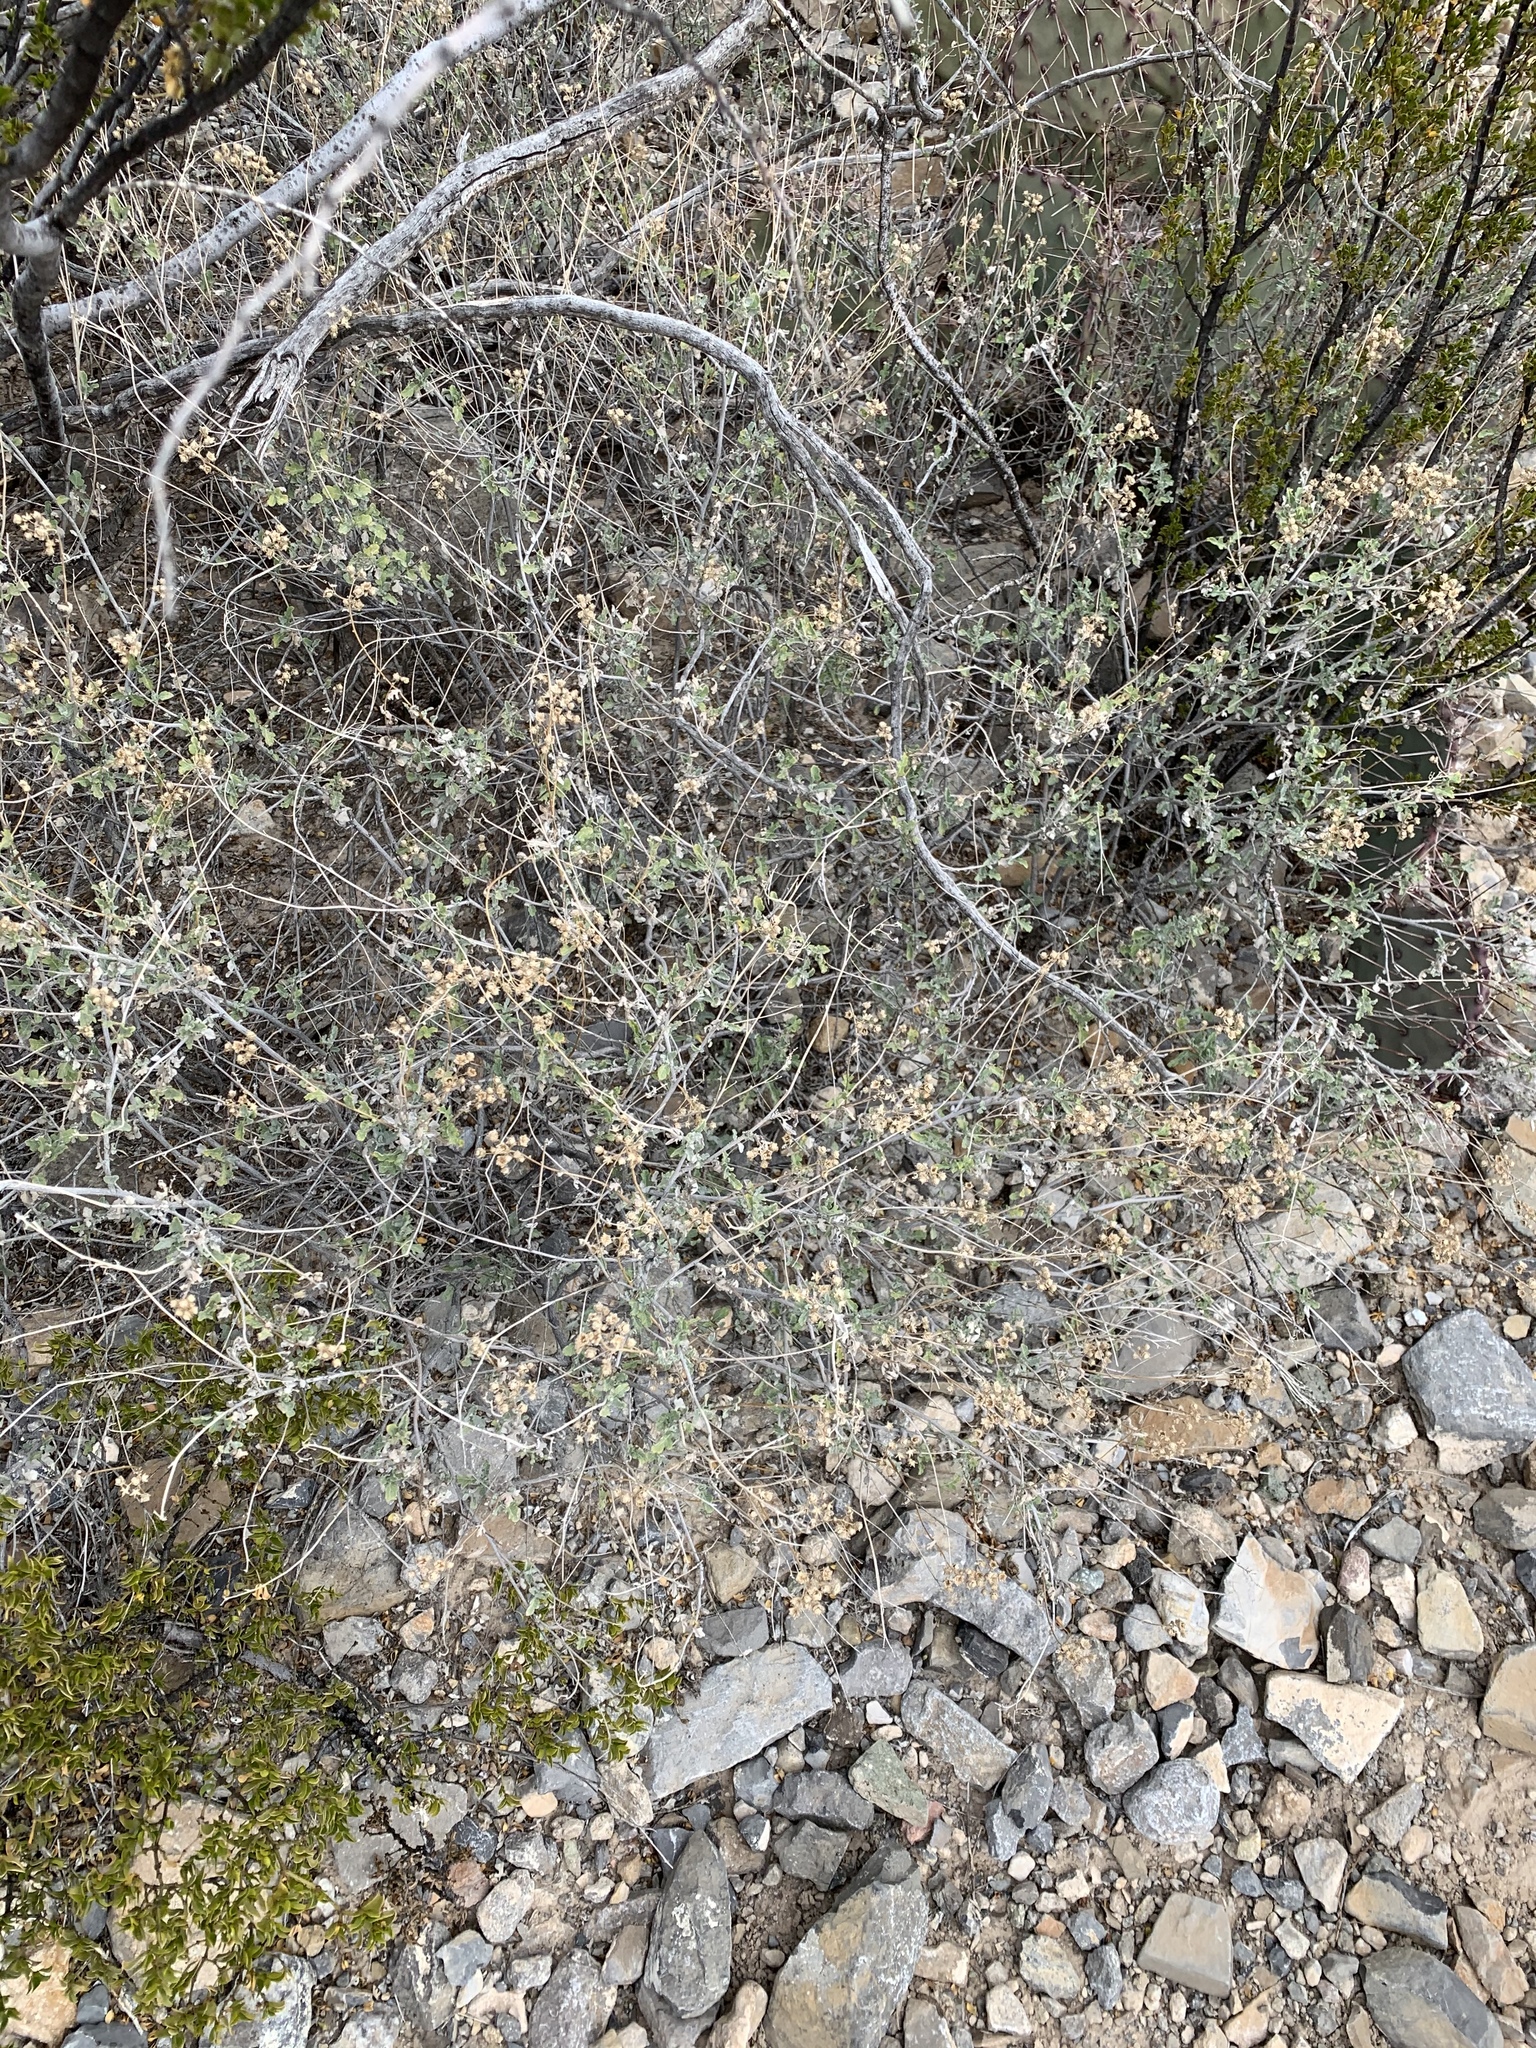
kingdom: Plantae
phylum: Tracheophyta
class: Magnoliopsida
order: Asterales
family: Asteraceae
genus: Parthenium
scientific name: Parthenium incanum
